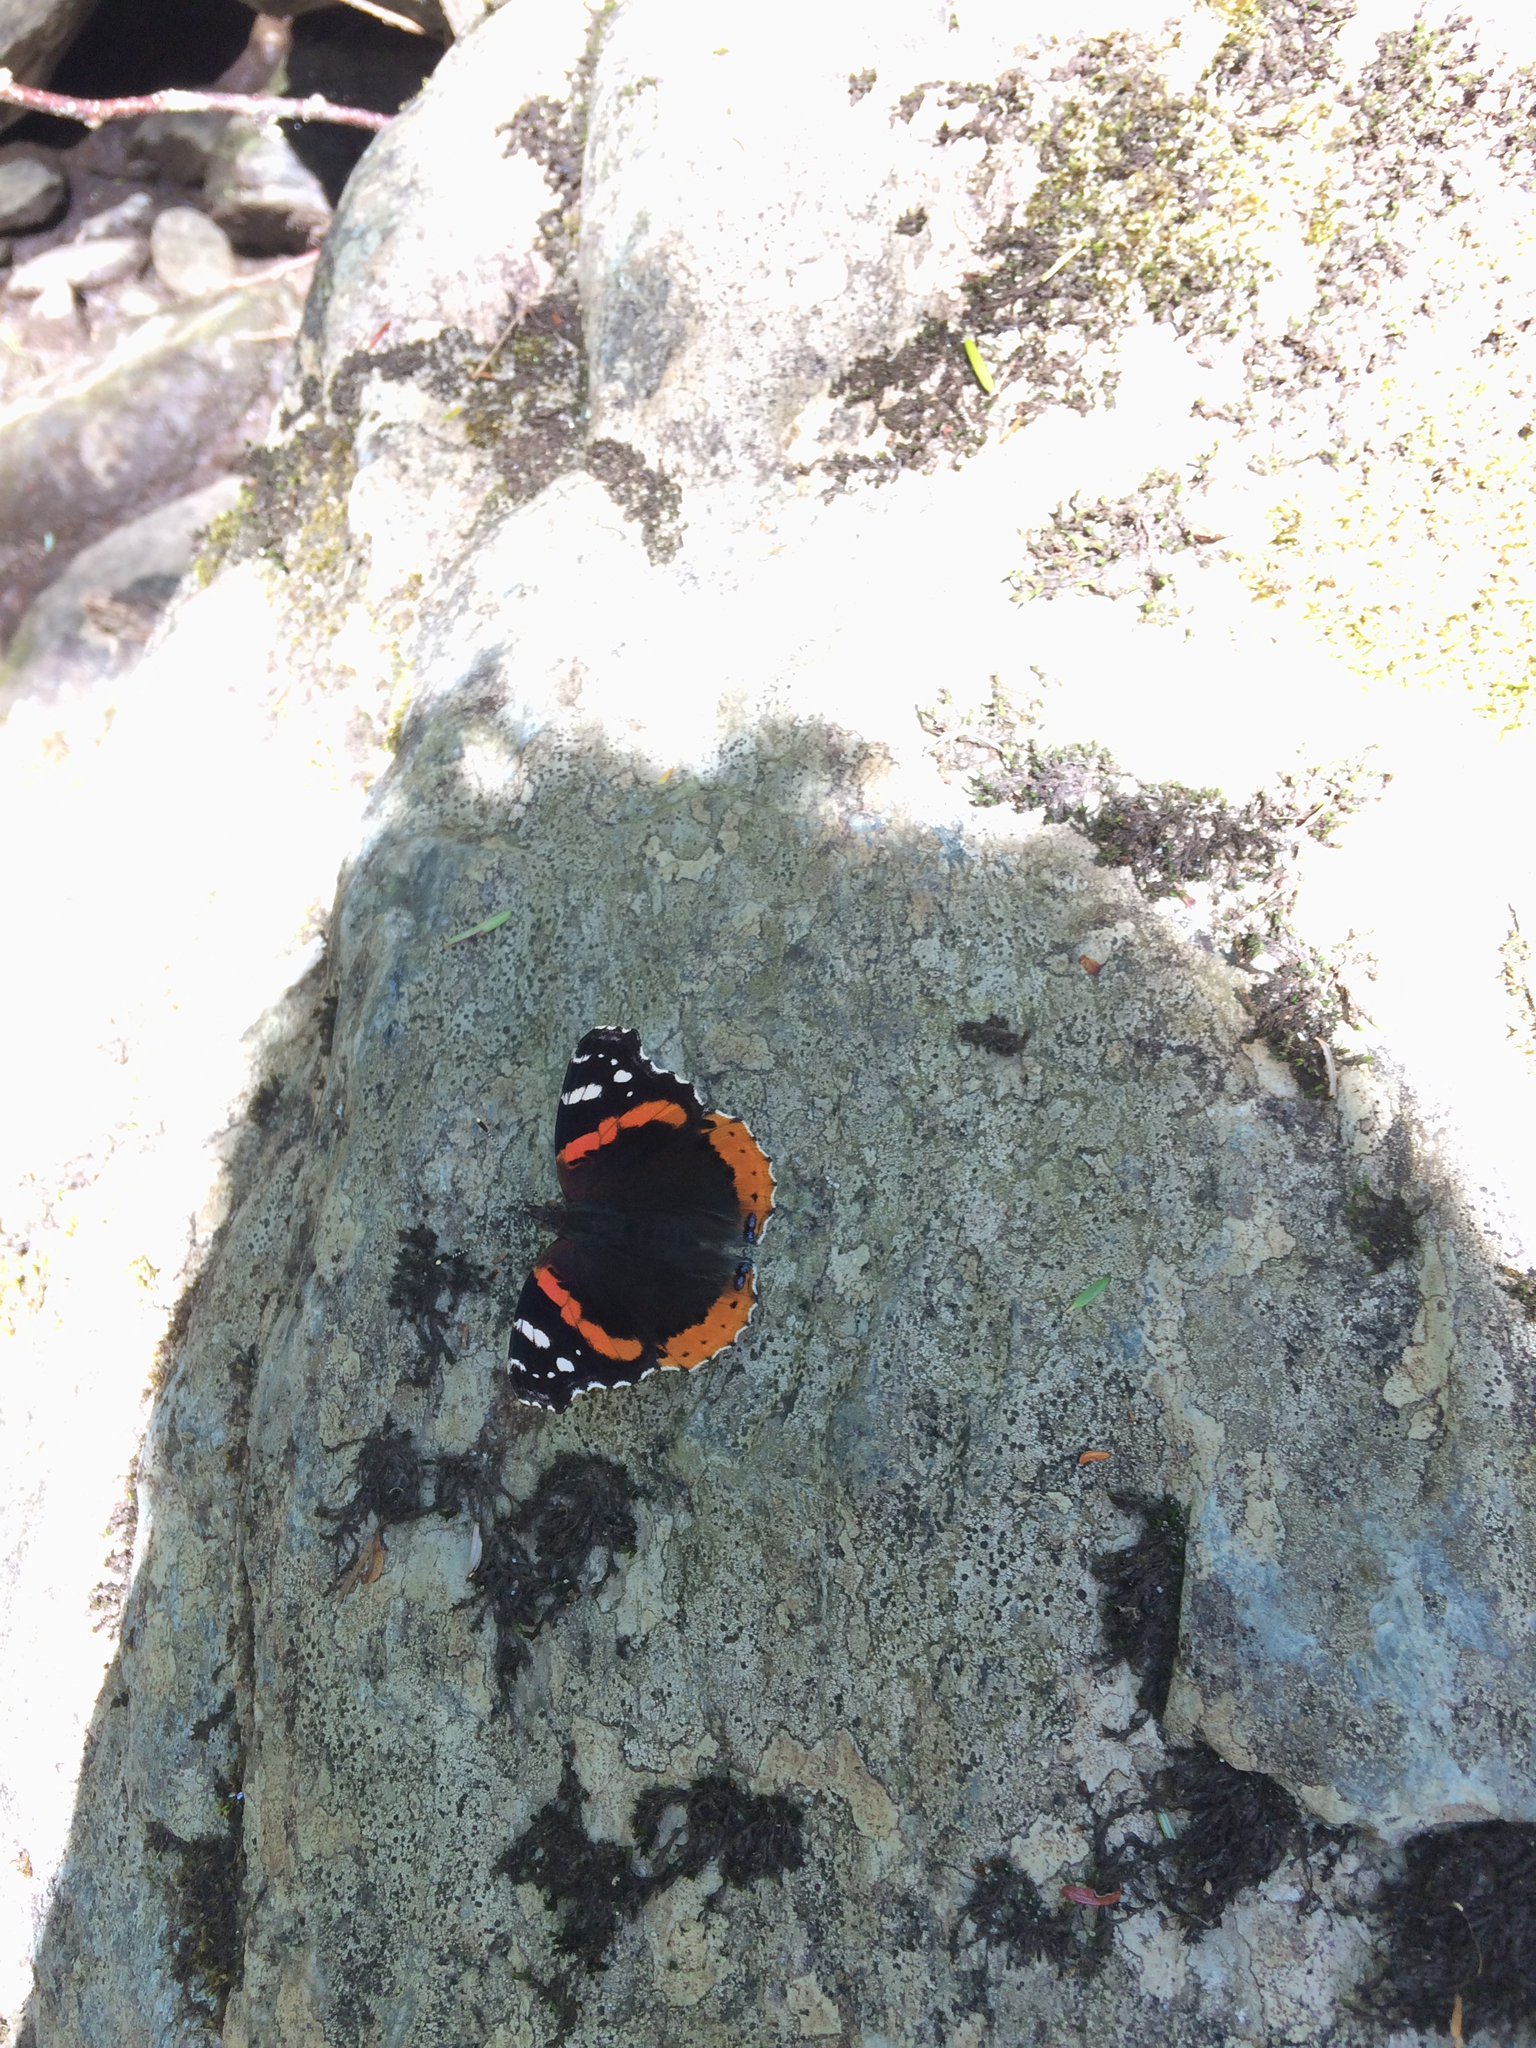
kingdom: Animalia
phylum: Arthropoda
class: Insecta
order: Lepidoptera
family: Nymphalidae
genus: Vanessa
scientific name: Vanessa atalanta
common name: Red admiral
